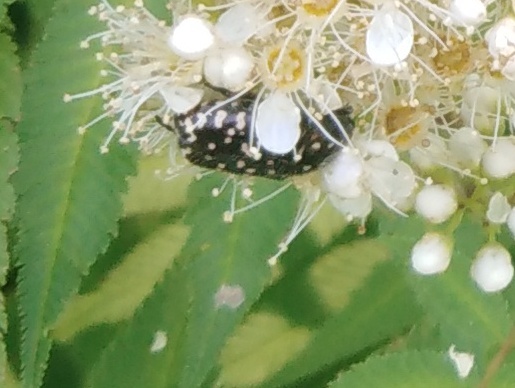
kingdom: Animalia
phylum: Arthropoda
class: Insecta
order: Coleoptera
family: Scarabaeidae
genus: Oxythyrea
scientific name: Oxythyrea funesta
